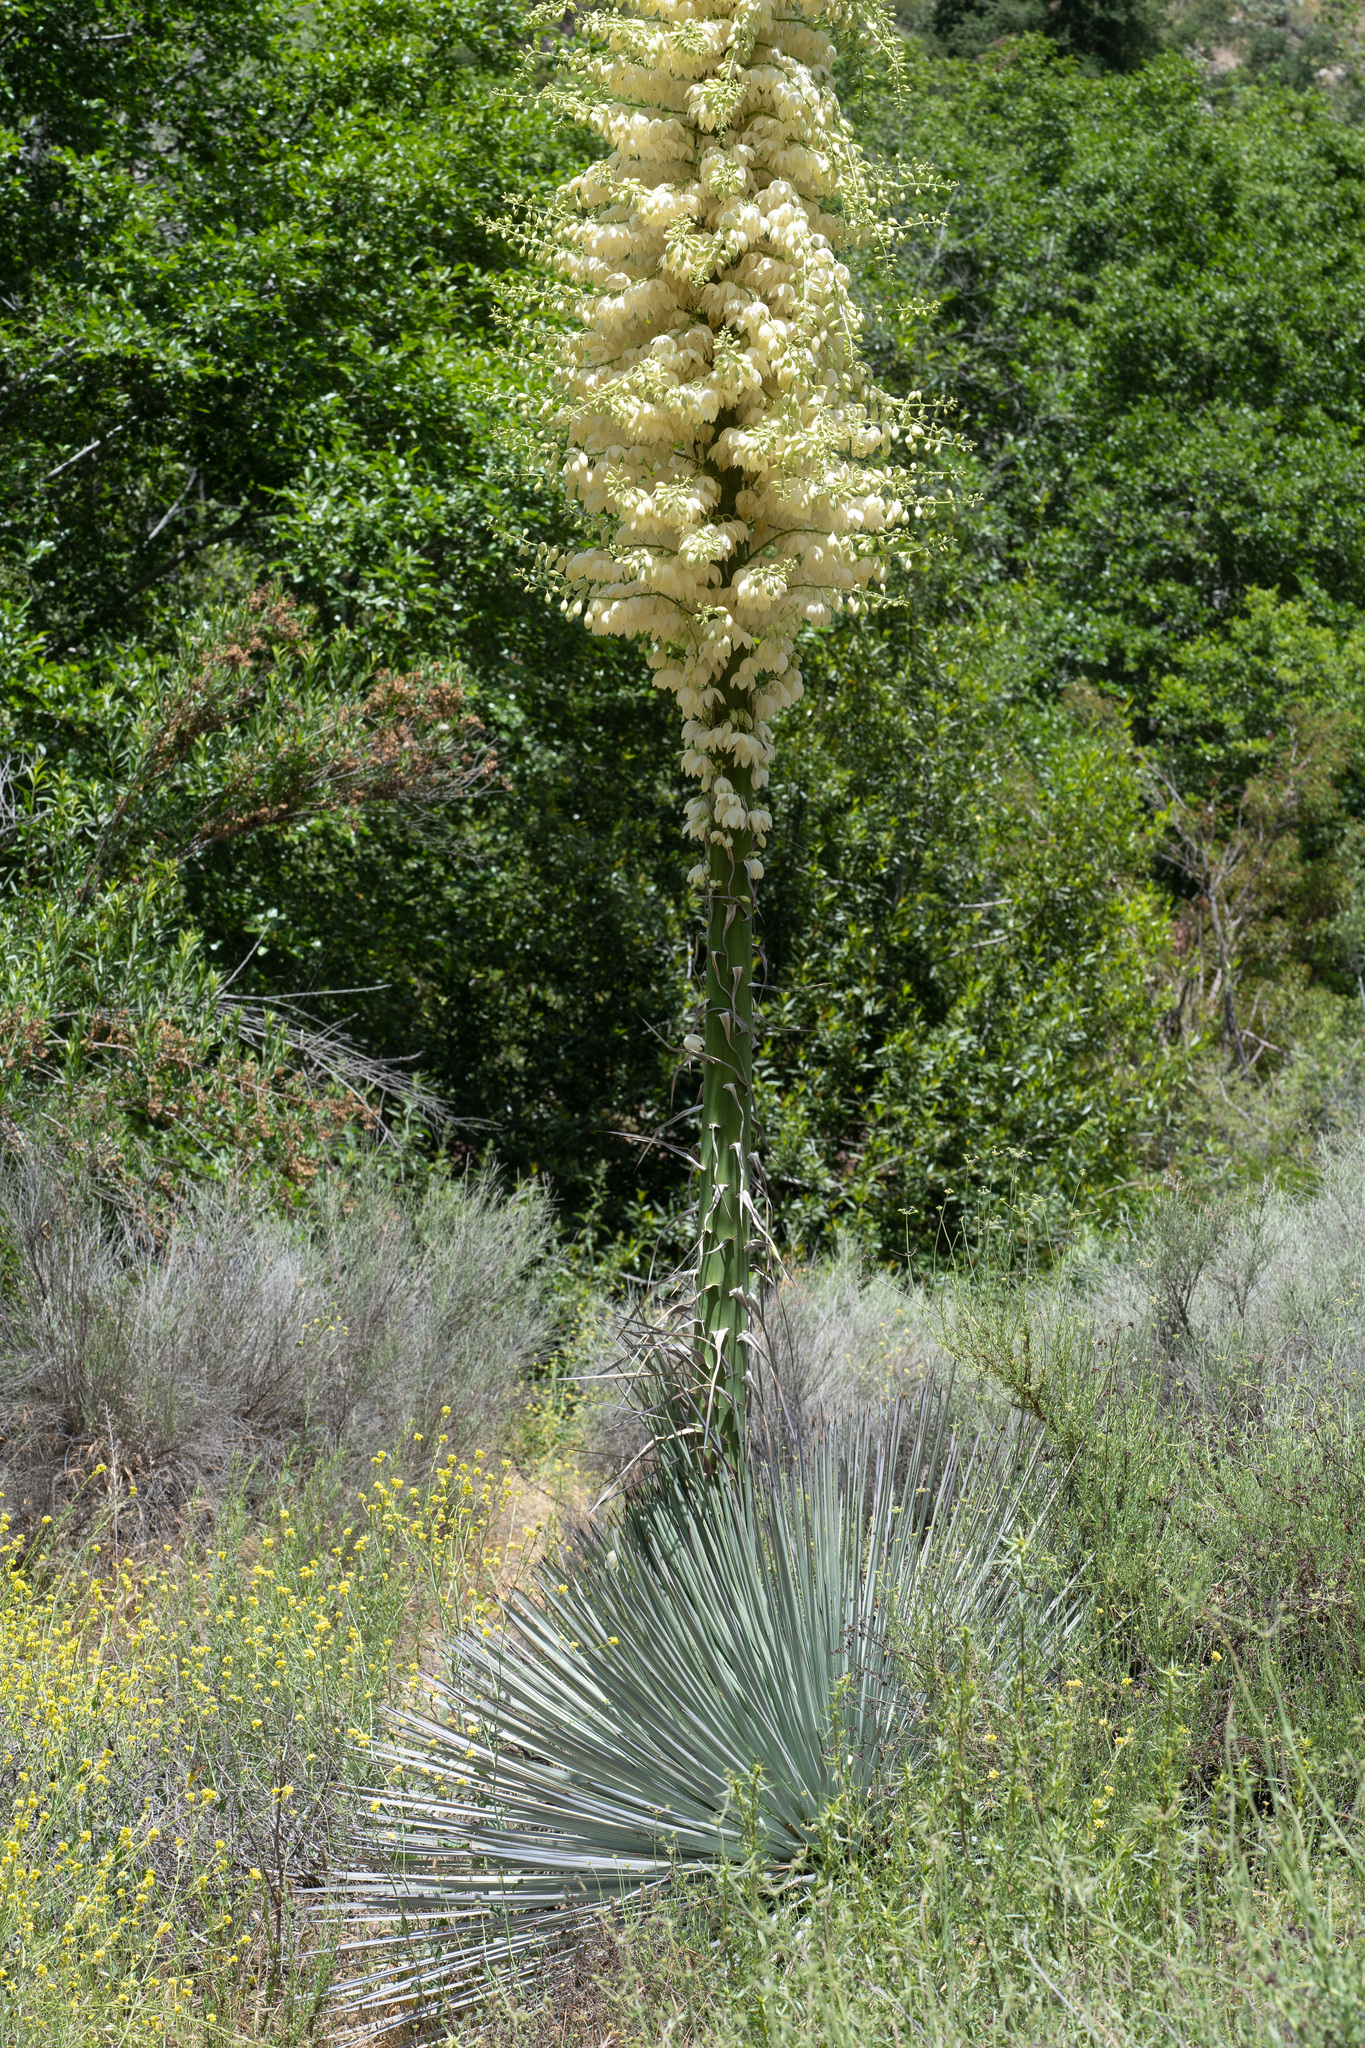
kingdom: Plantae
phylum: Tracheophyta
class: Liliopsida
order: Asparagales
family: Asparagaceae
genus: Hesperoyucca
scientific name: Hesperoyucca whipplei
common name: Our lord's-candle
